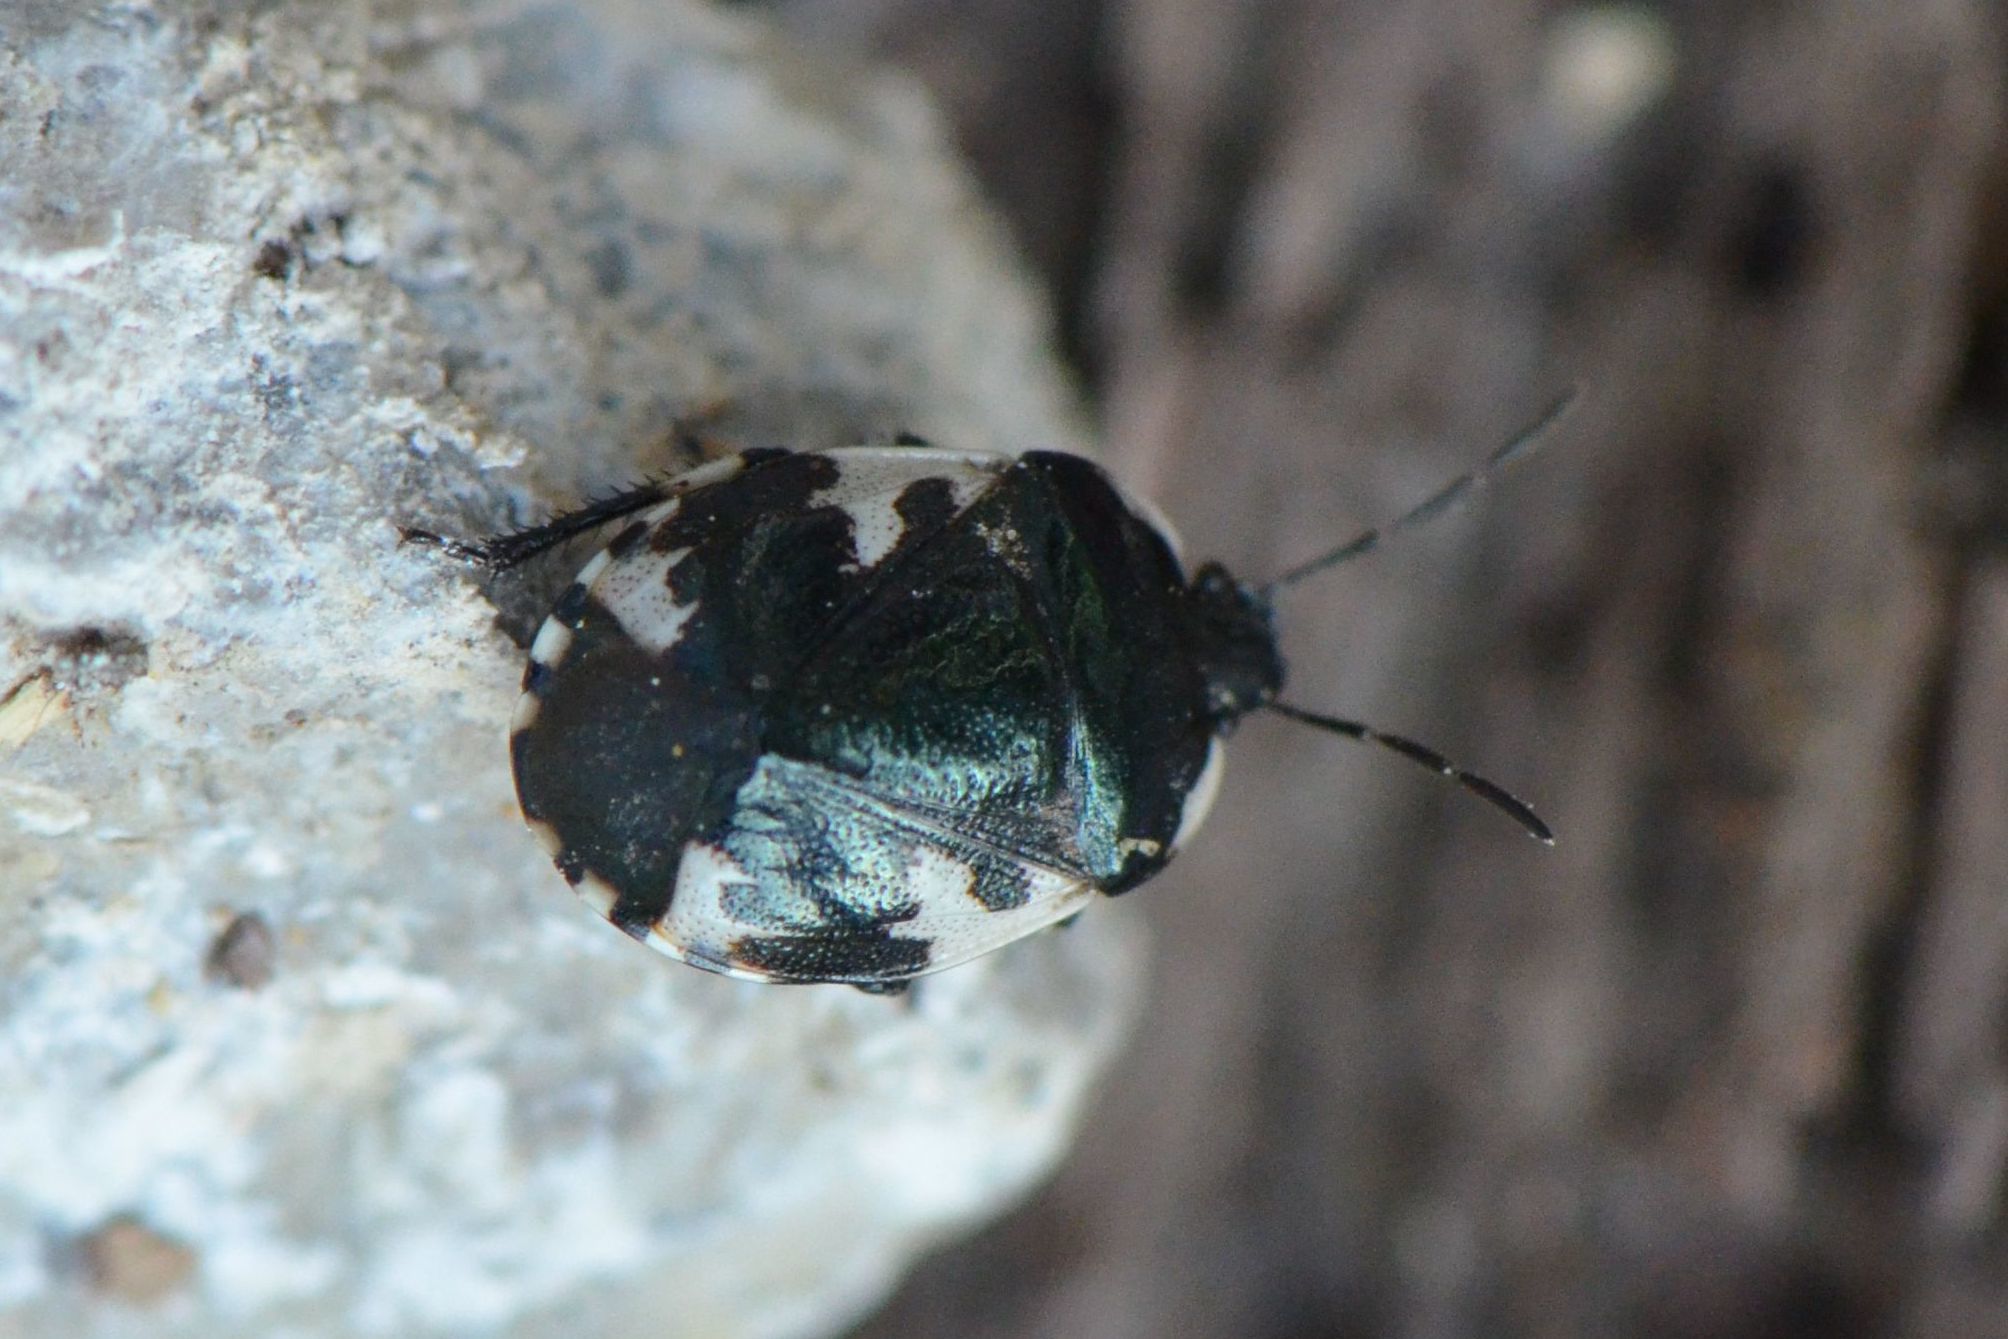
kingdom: Animalia
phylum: Arthropoda
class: Insecta
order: Hemiptera
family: Cydnidae
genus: Tritomegas
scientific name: Tritomegas sexmaculatus
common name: Rambur's pied shieldbug
